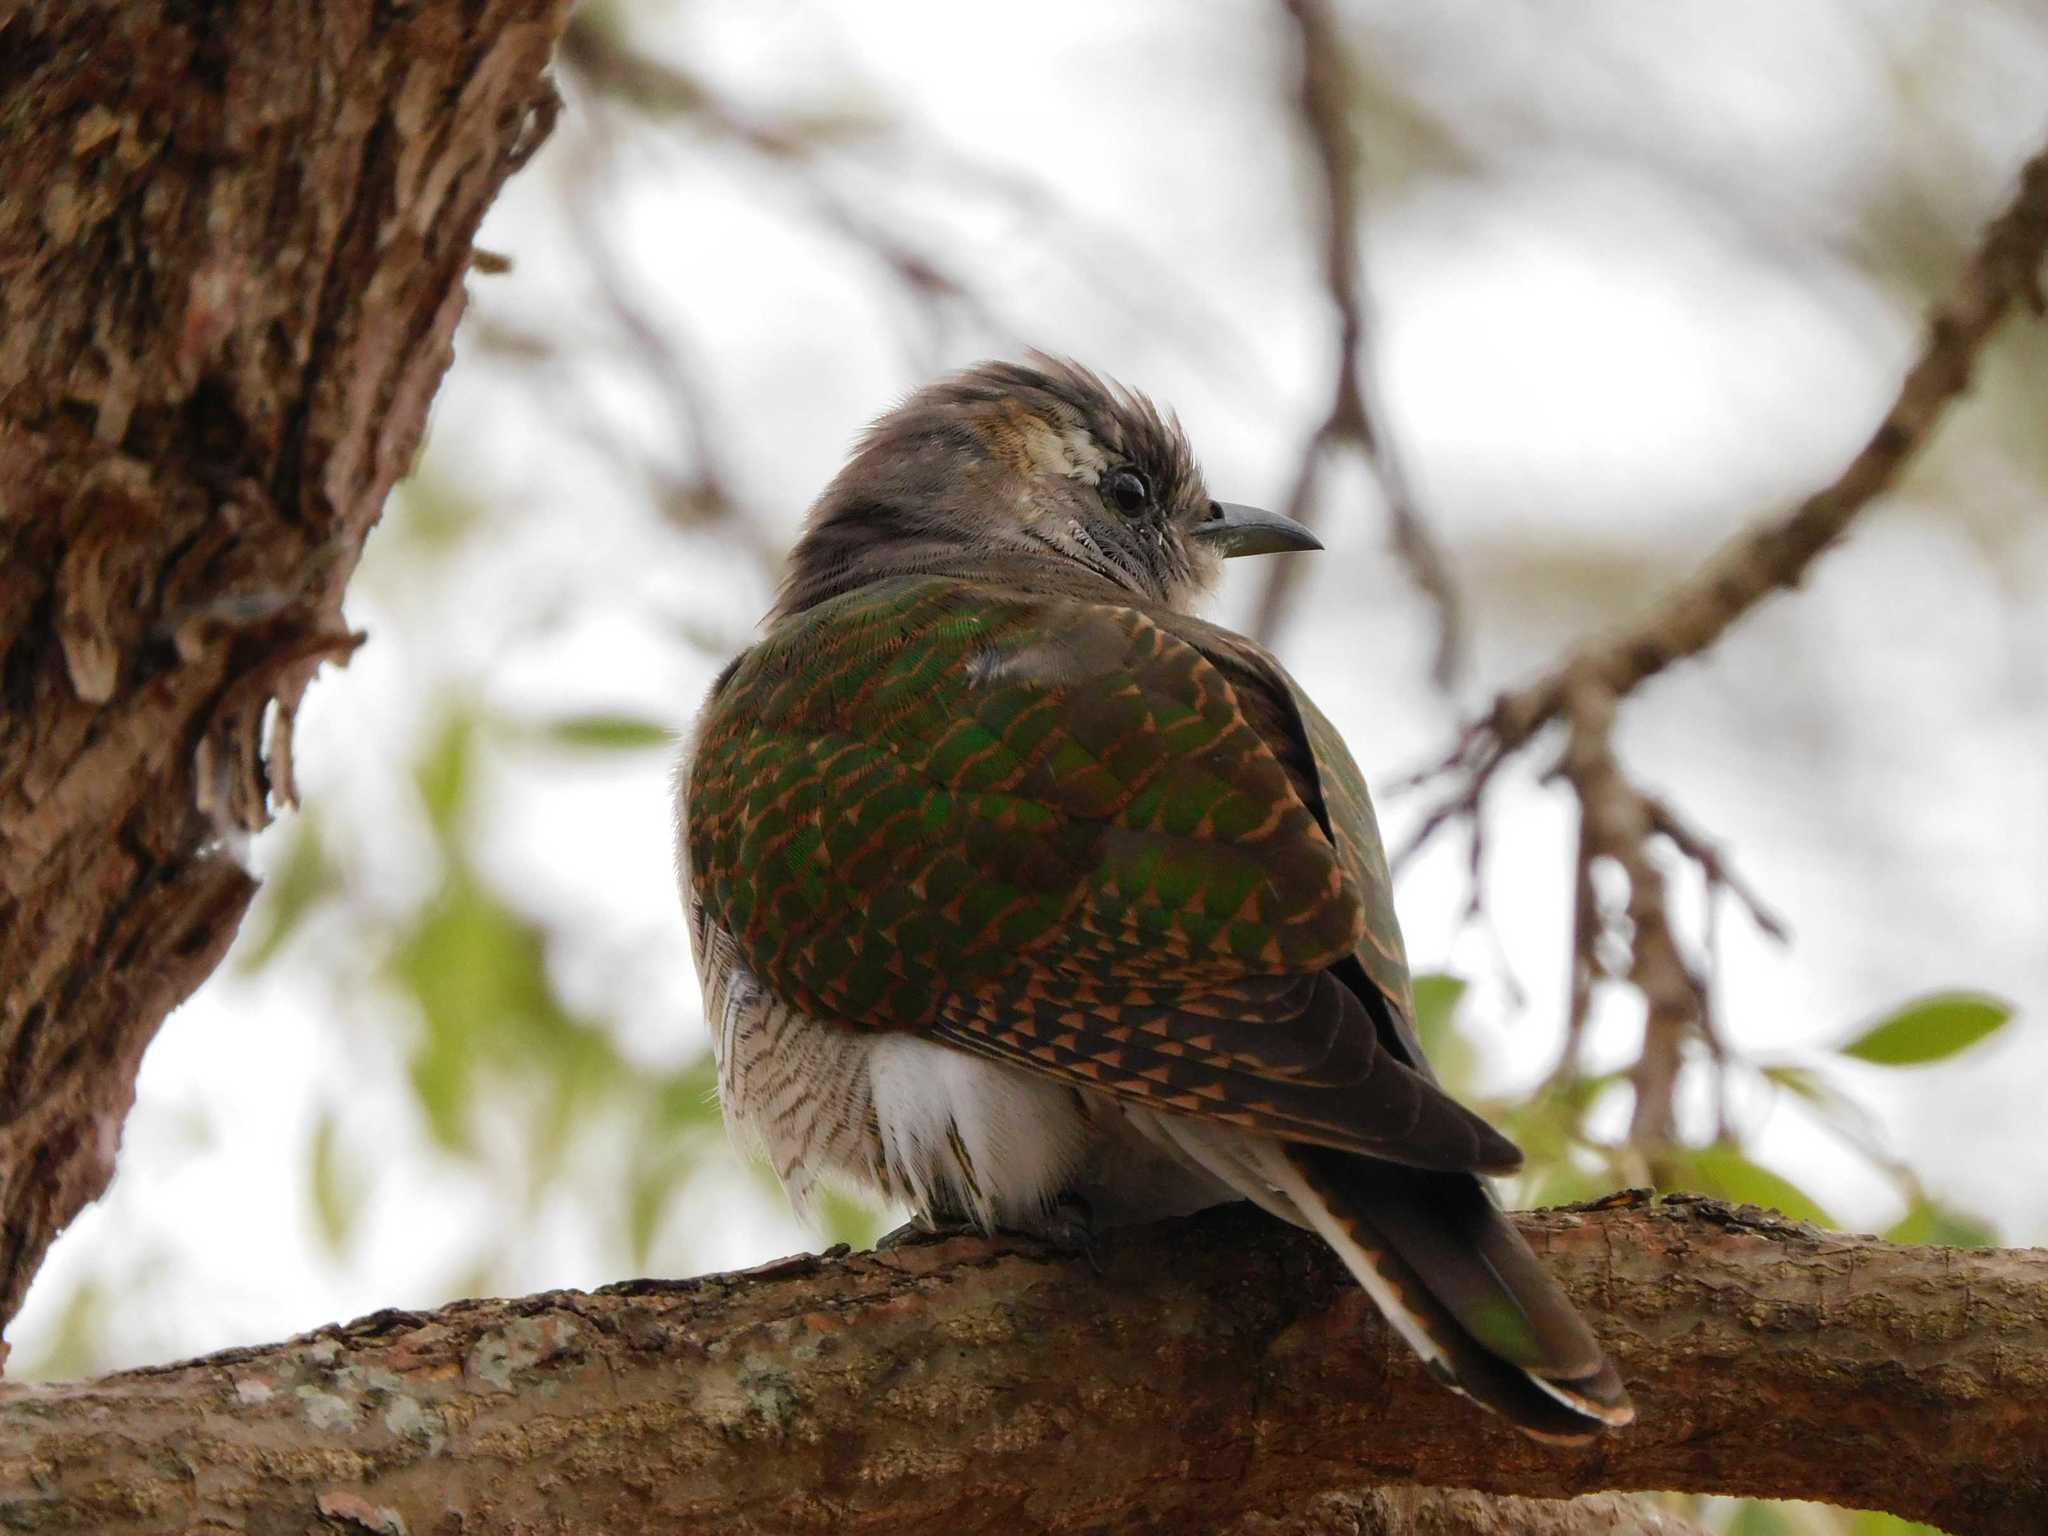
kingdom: Animalia
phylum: Chordata
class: Aves
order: Cuculiformes
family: Cuculidae
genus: Chrysococcyx
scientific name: Chrysococcyx klaas
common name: Klaas's cuckoo
